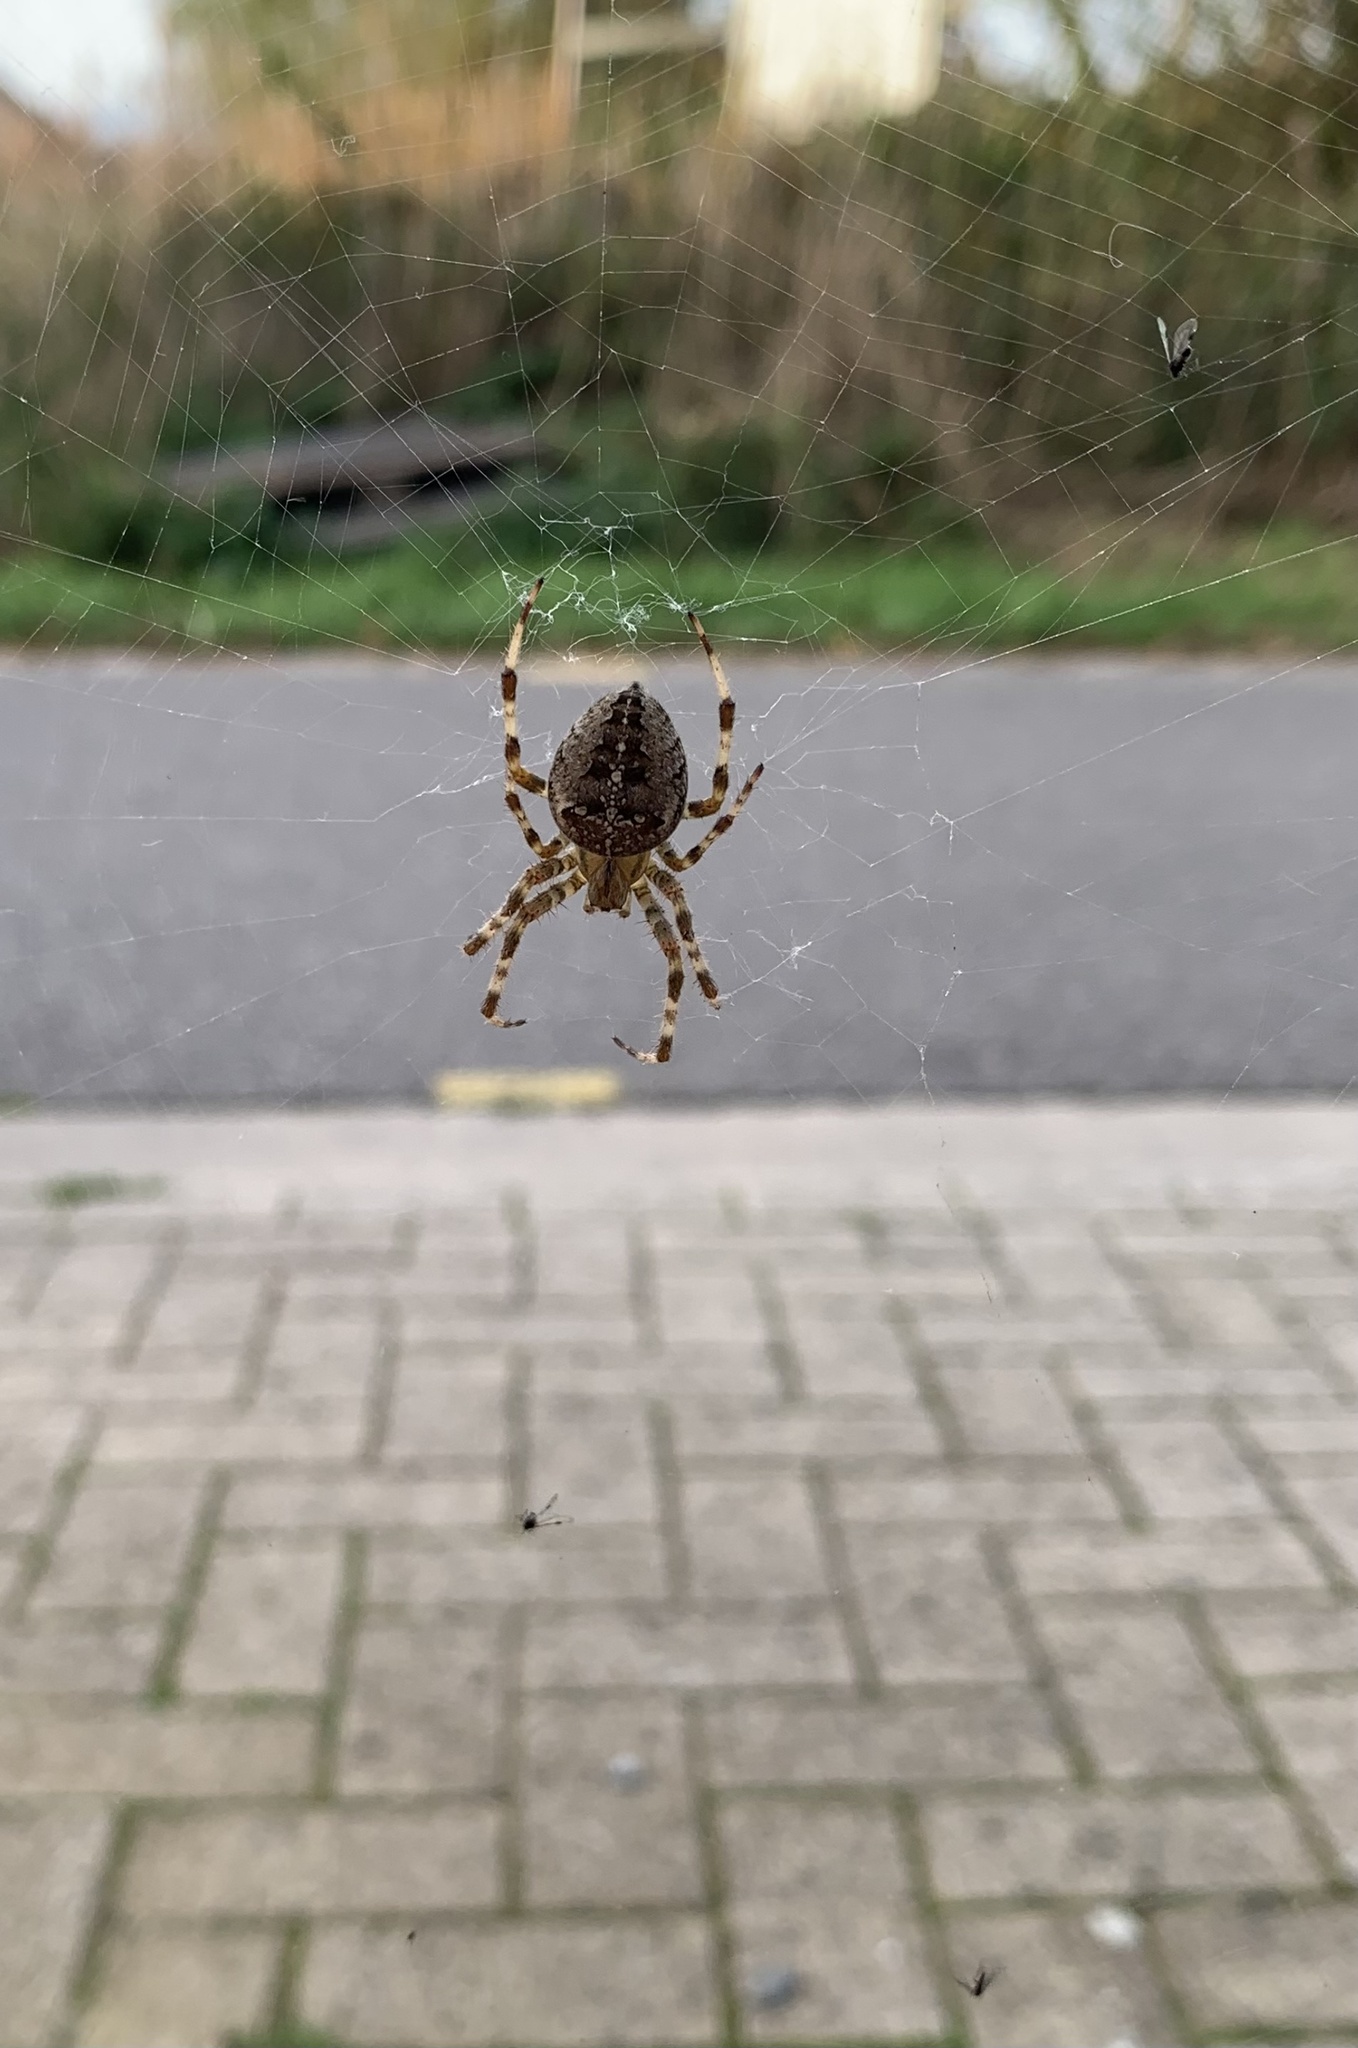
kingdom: Animalia
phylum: Arthropoda
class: Arachnida
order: Araneae
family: Araneidae
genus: Araneus
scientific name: Araneus diadematus
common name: Cross orbweaver
